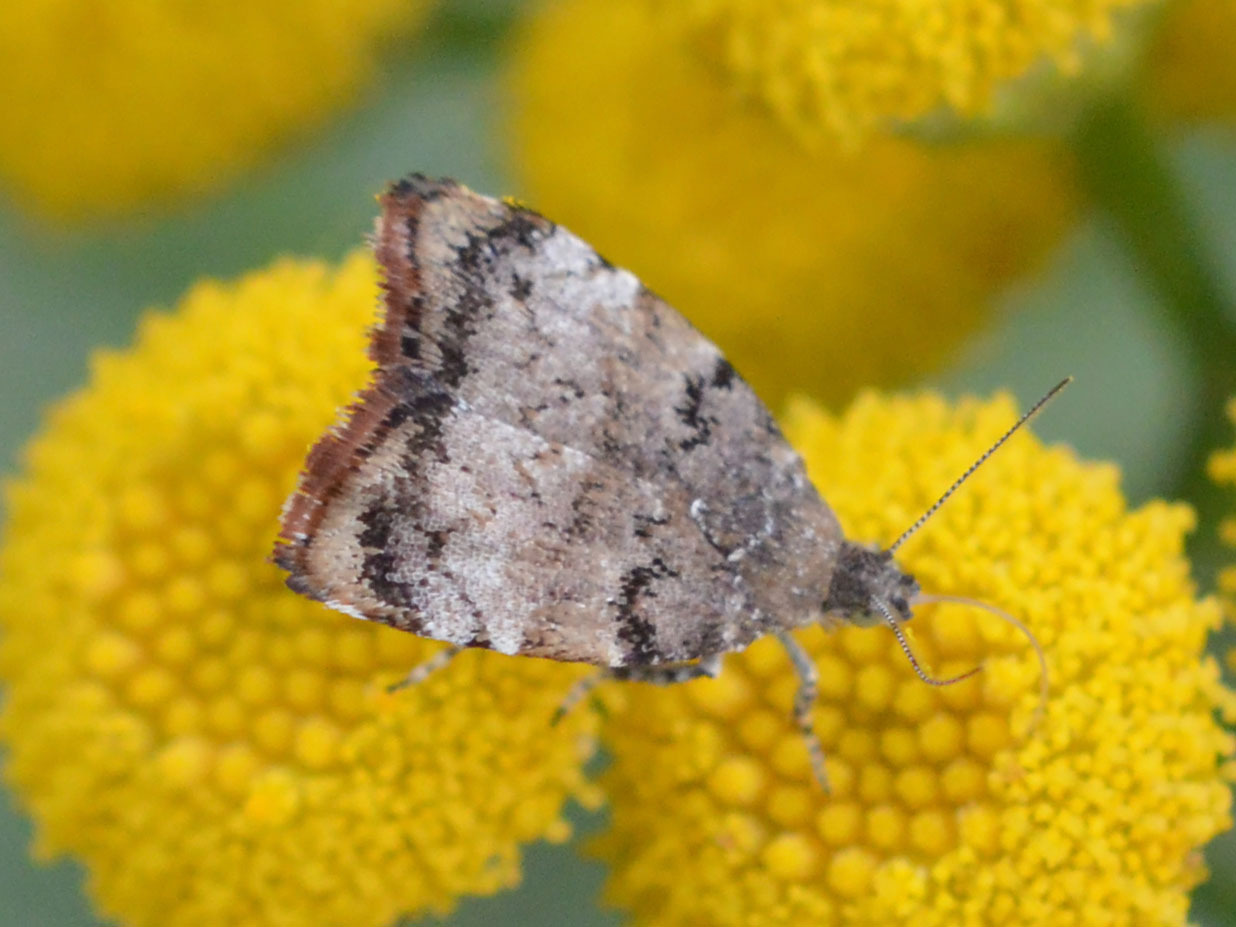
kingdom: Animalia
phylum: Arthropoda
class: Insecta
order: Lepidoptera
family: Choreutidae
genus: Choreutis
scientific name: Choreutis pariana
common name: Apple leaf skeletoniser
